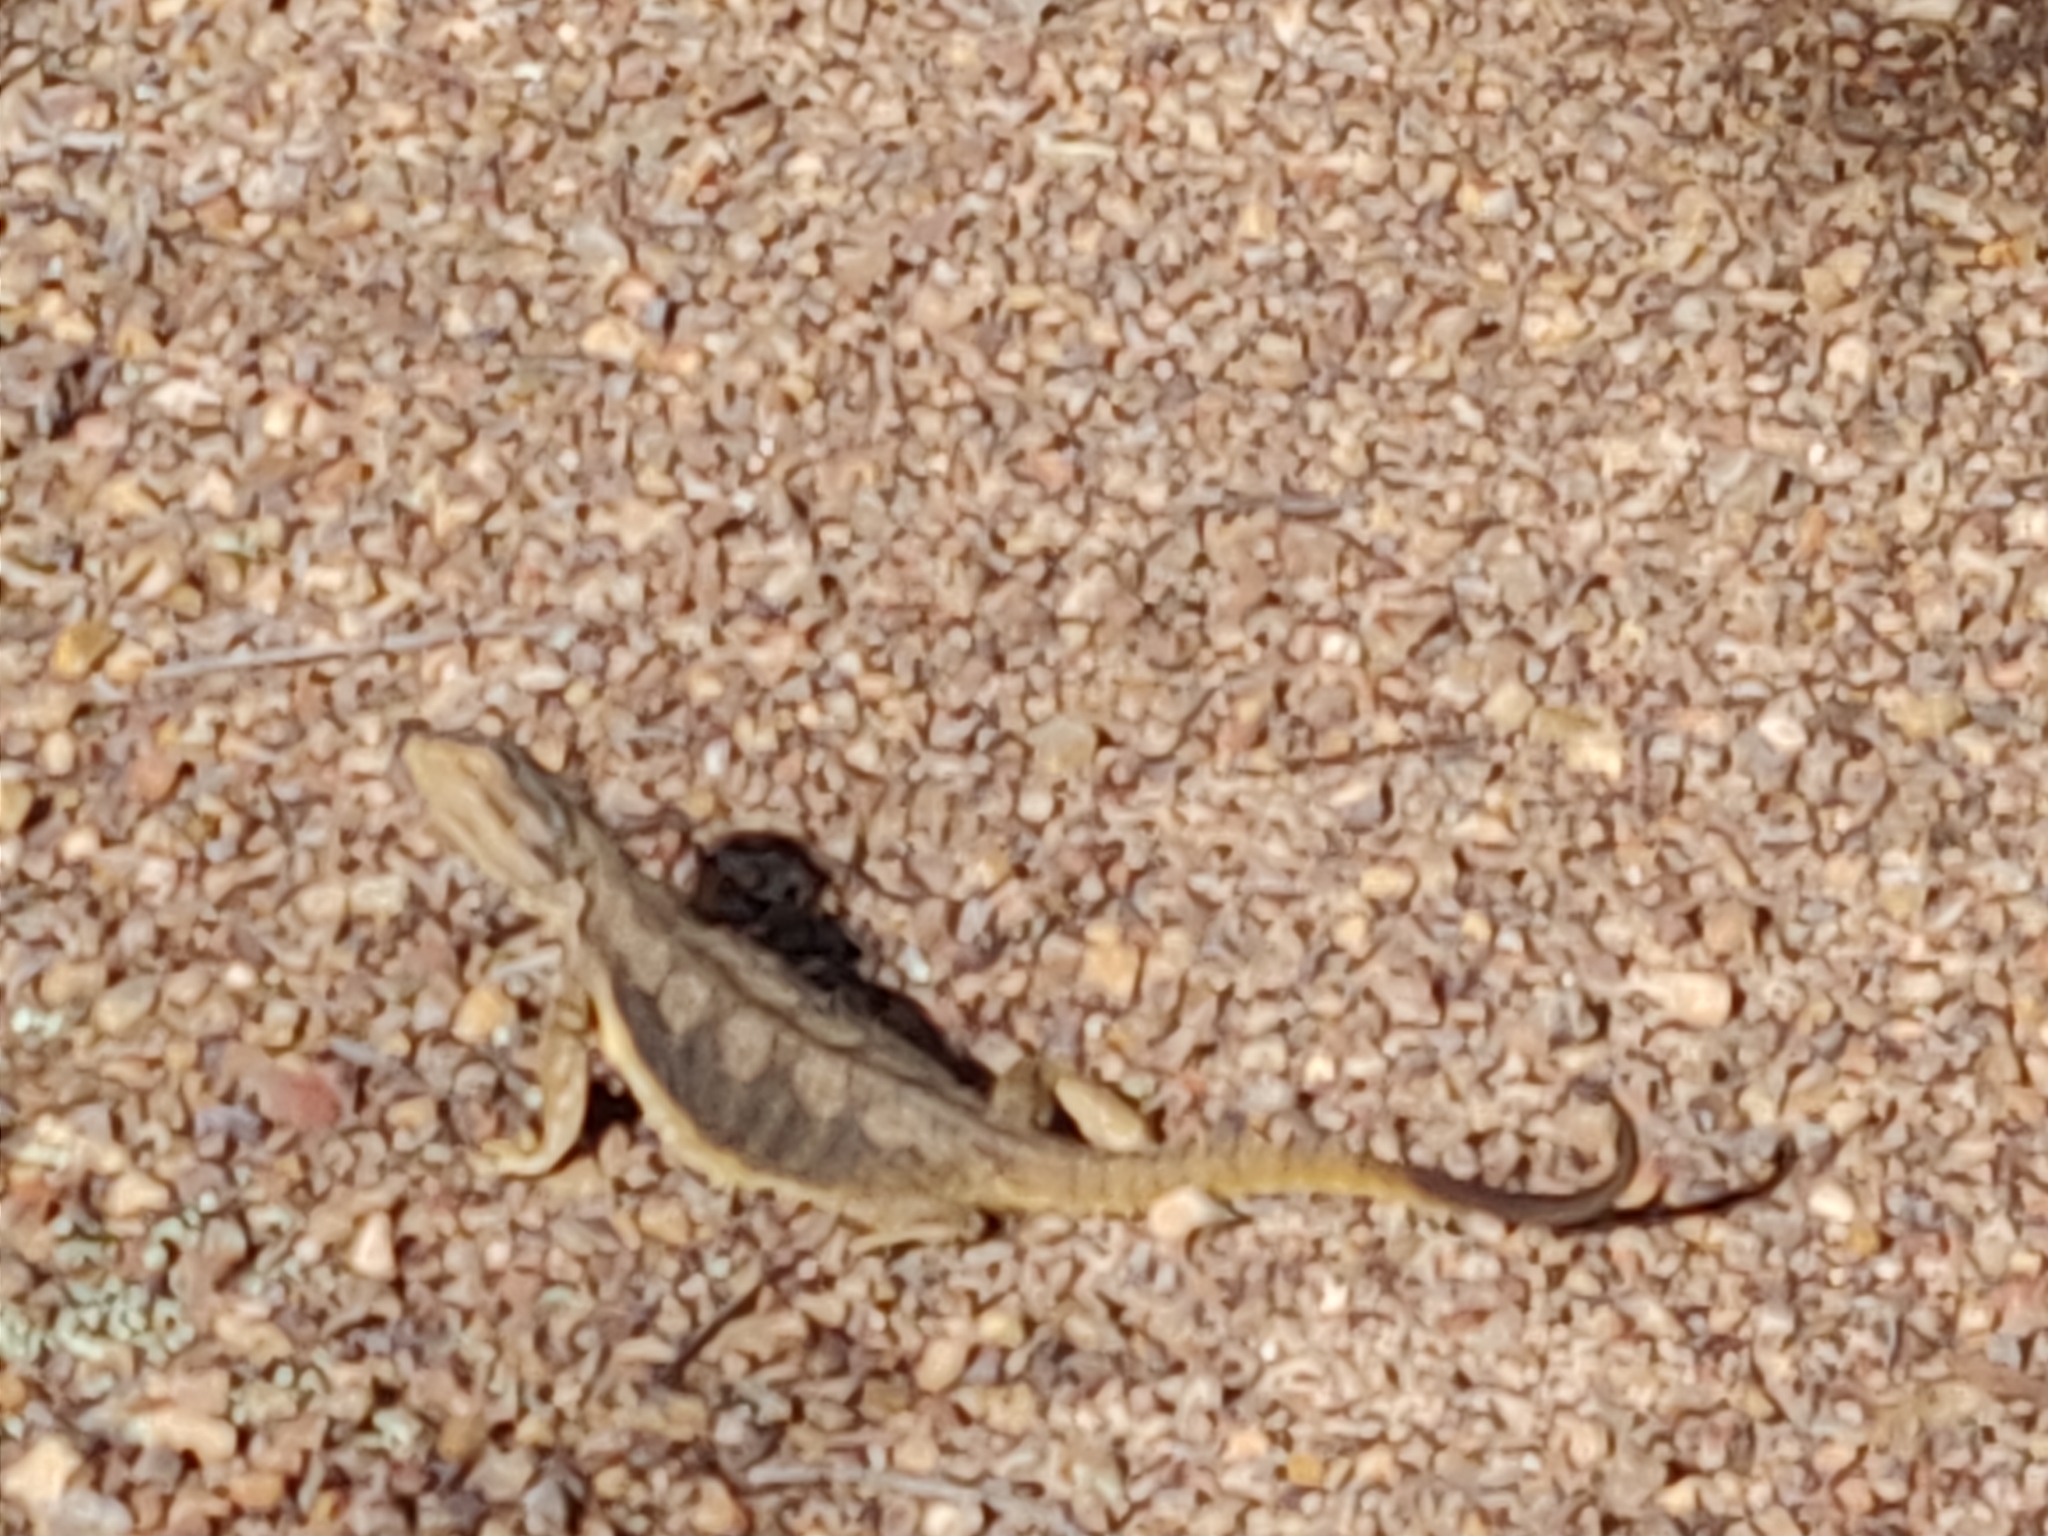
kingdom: Animalia
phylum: Chordata
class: Squamata
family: Agamidae
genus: Pogona
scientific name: Pogona barbata
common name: Bearded dragon
